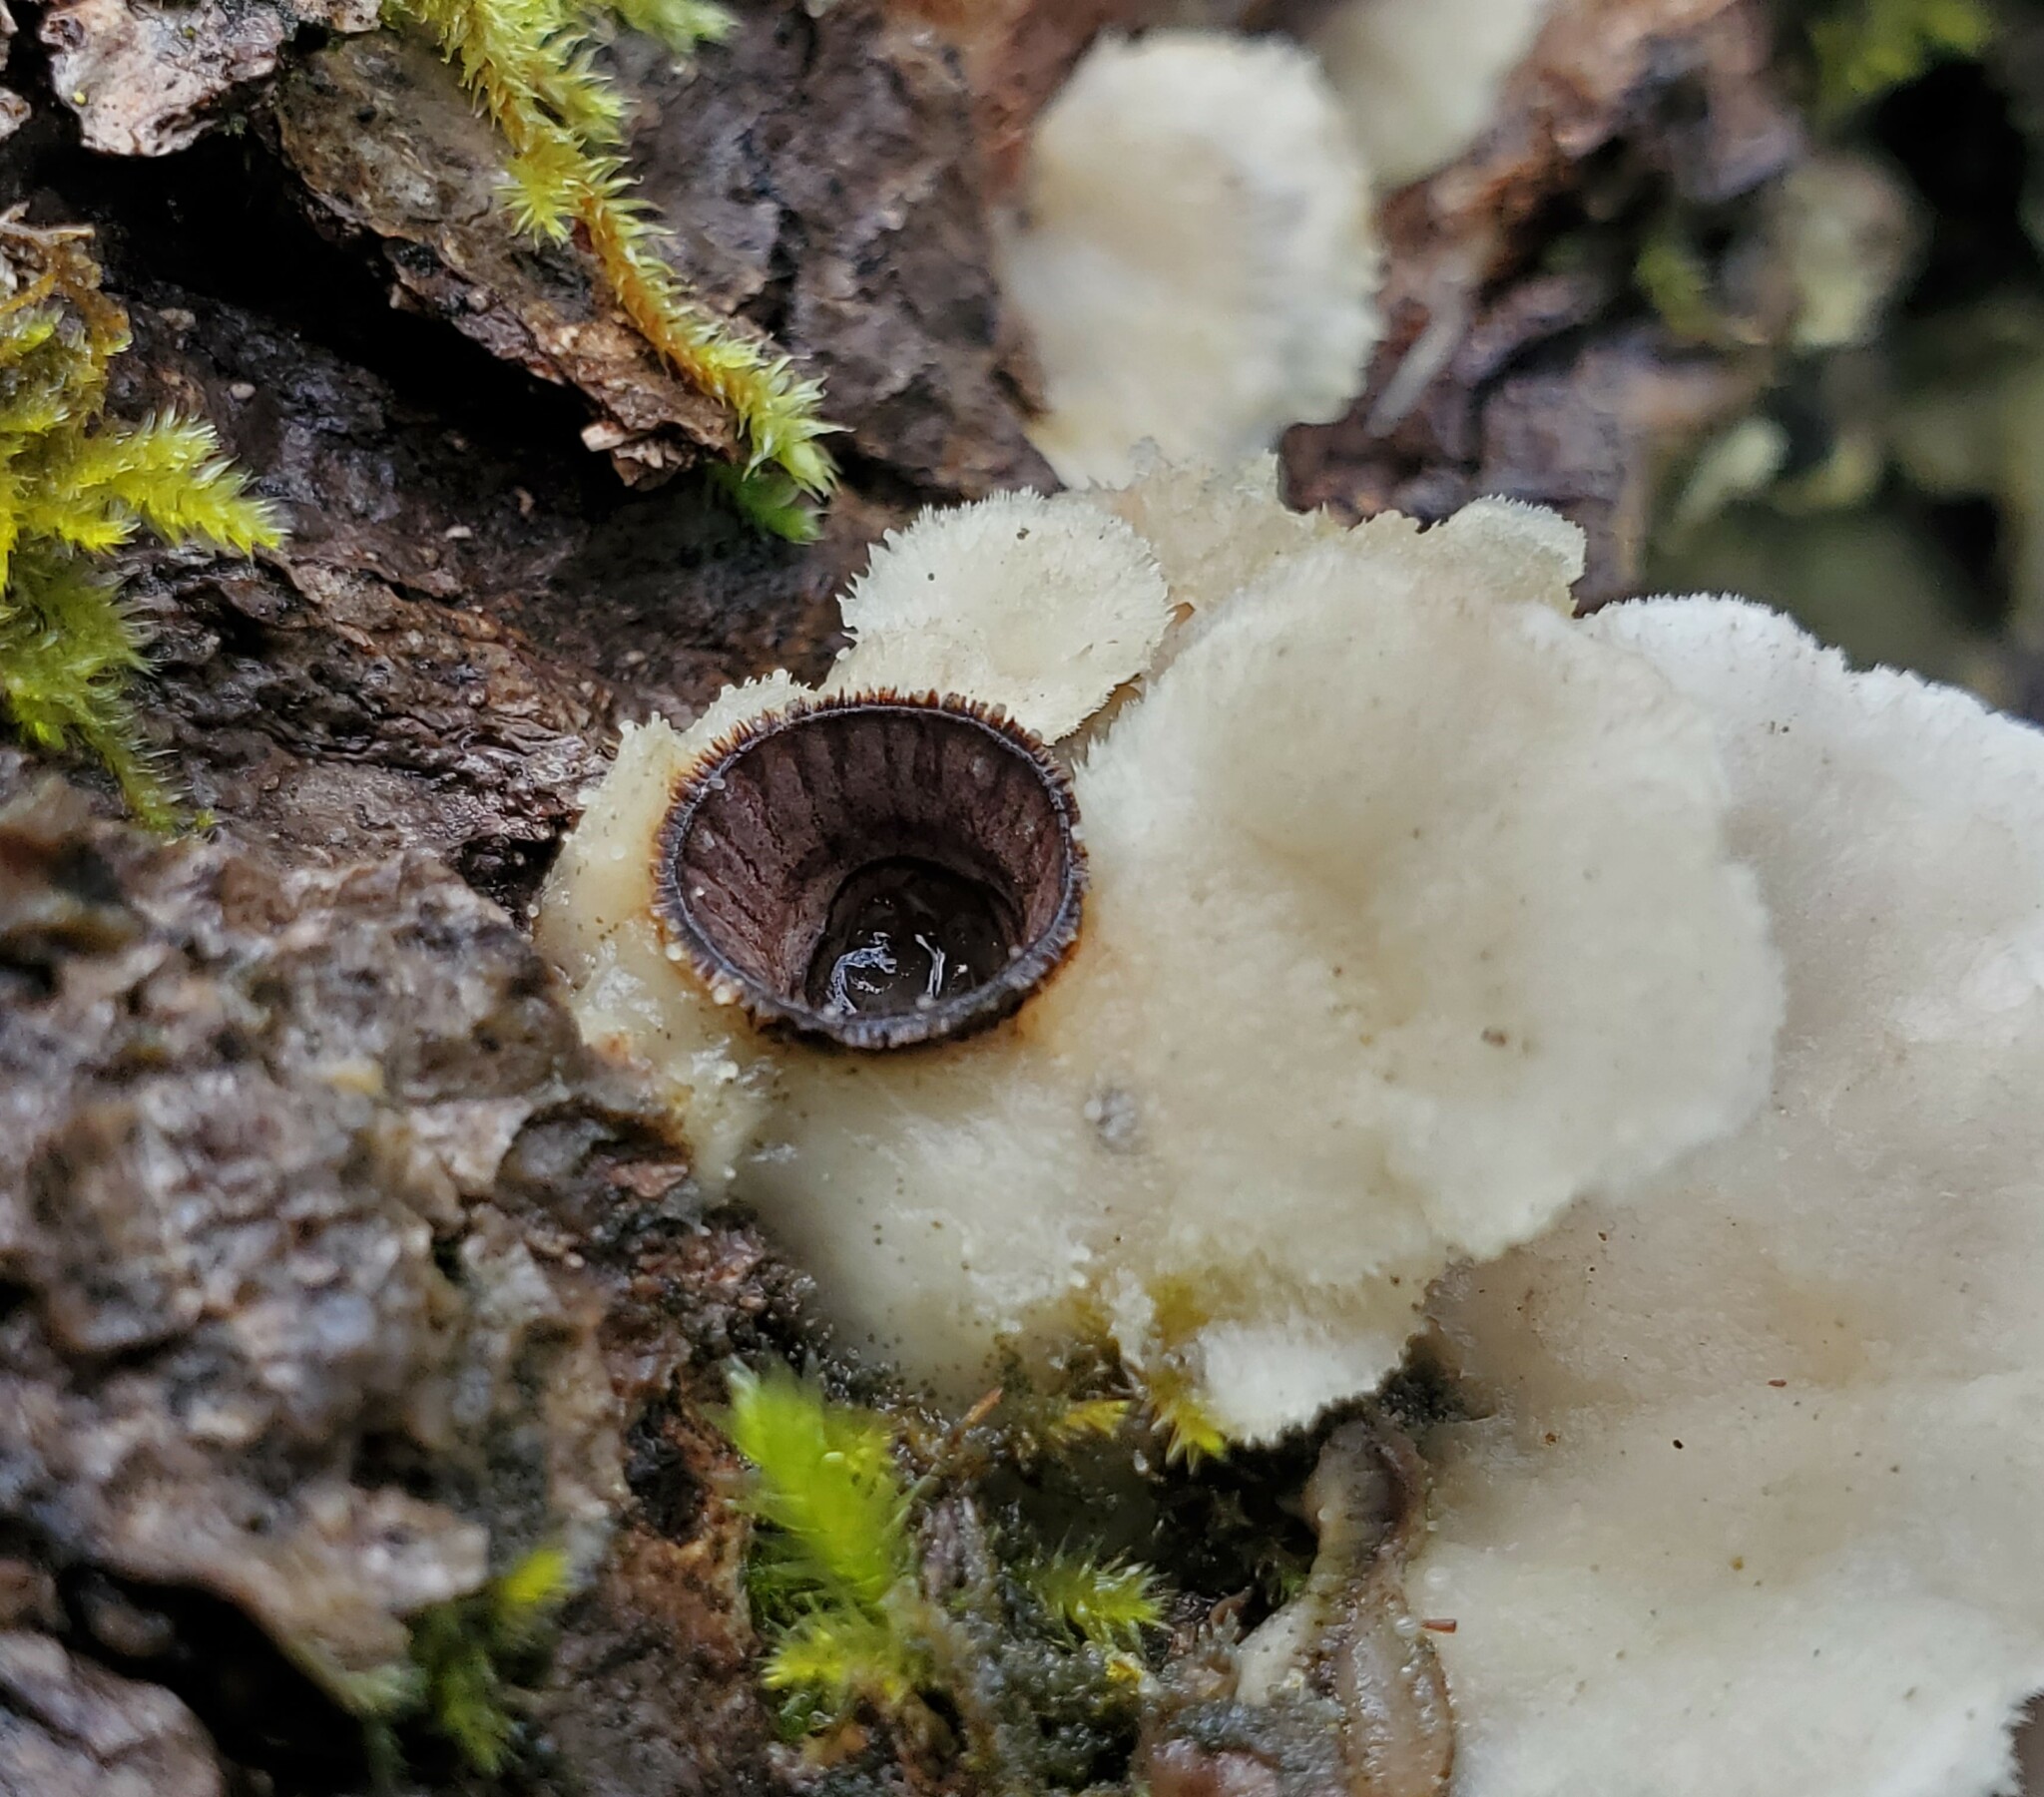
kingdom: Fungi
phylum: Basidiomycota
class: Agaricomycetes
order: Polyporales
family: Irpicaceae
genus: Vitreoporus
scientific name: Vitreoporus dichrous
